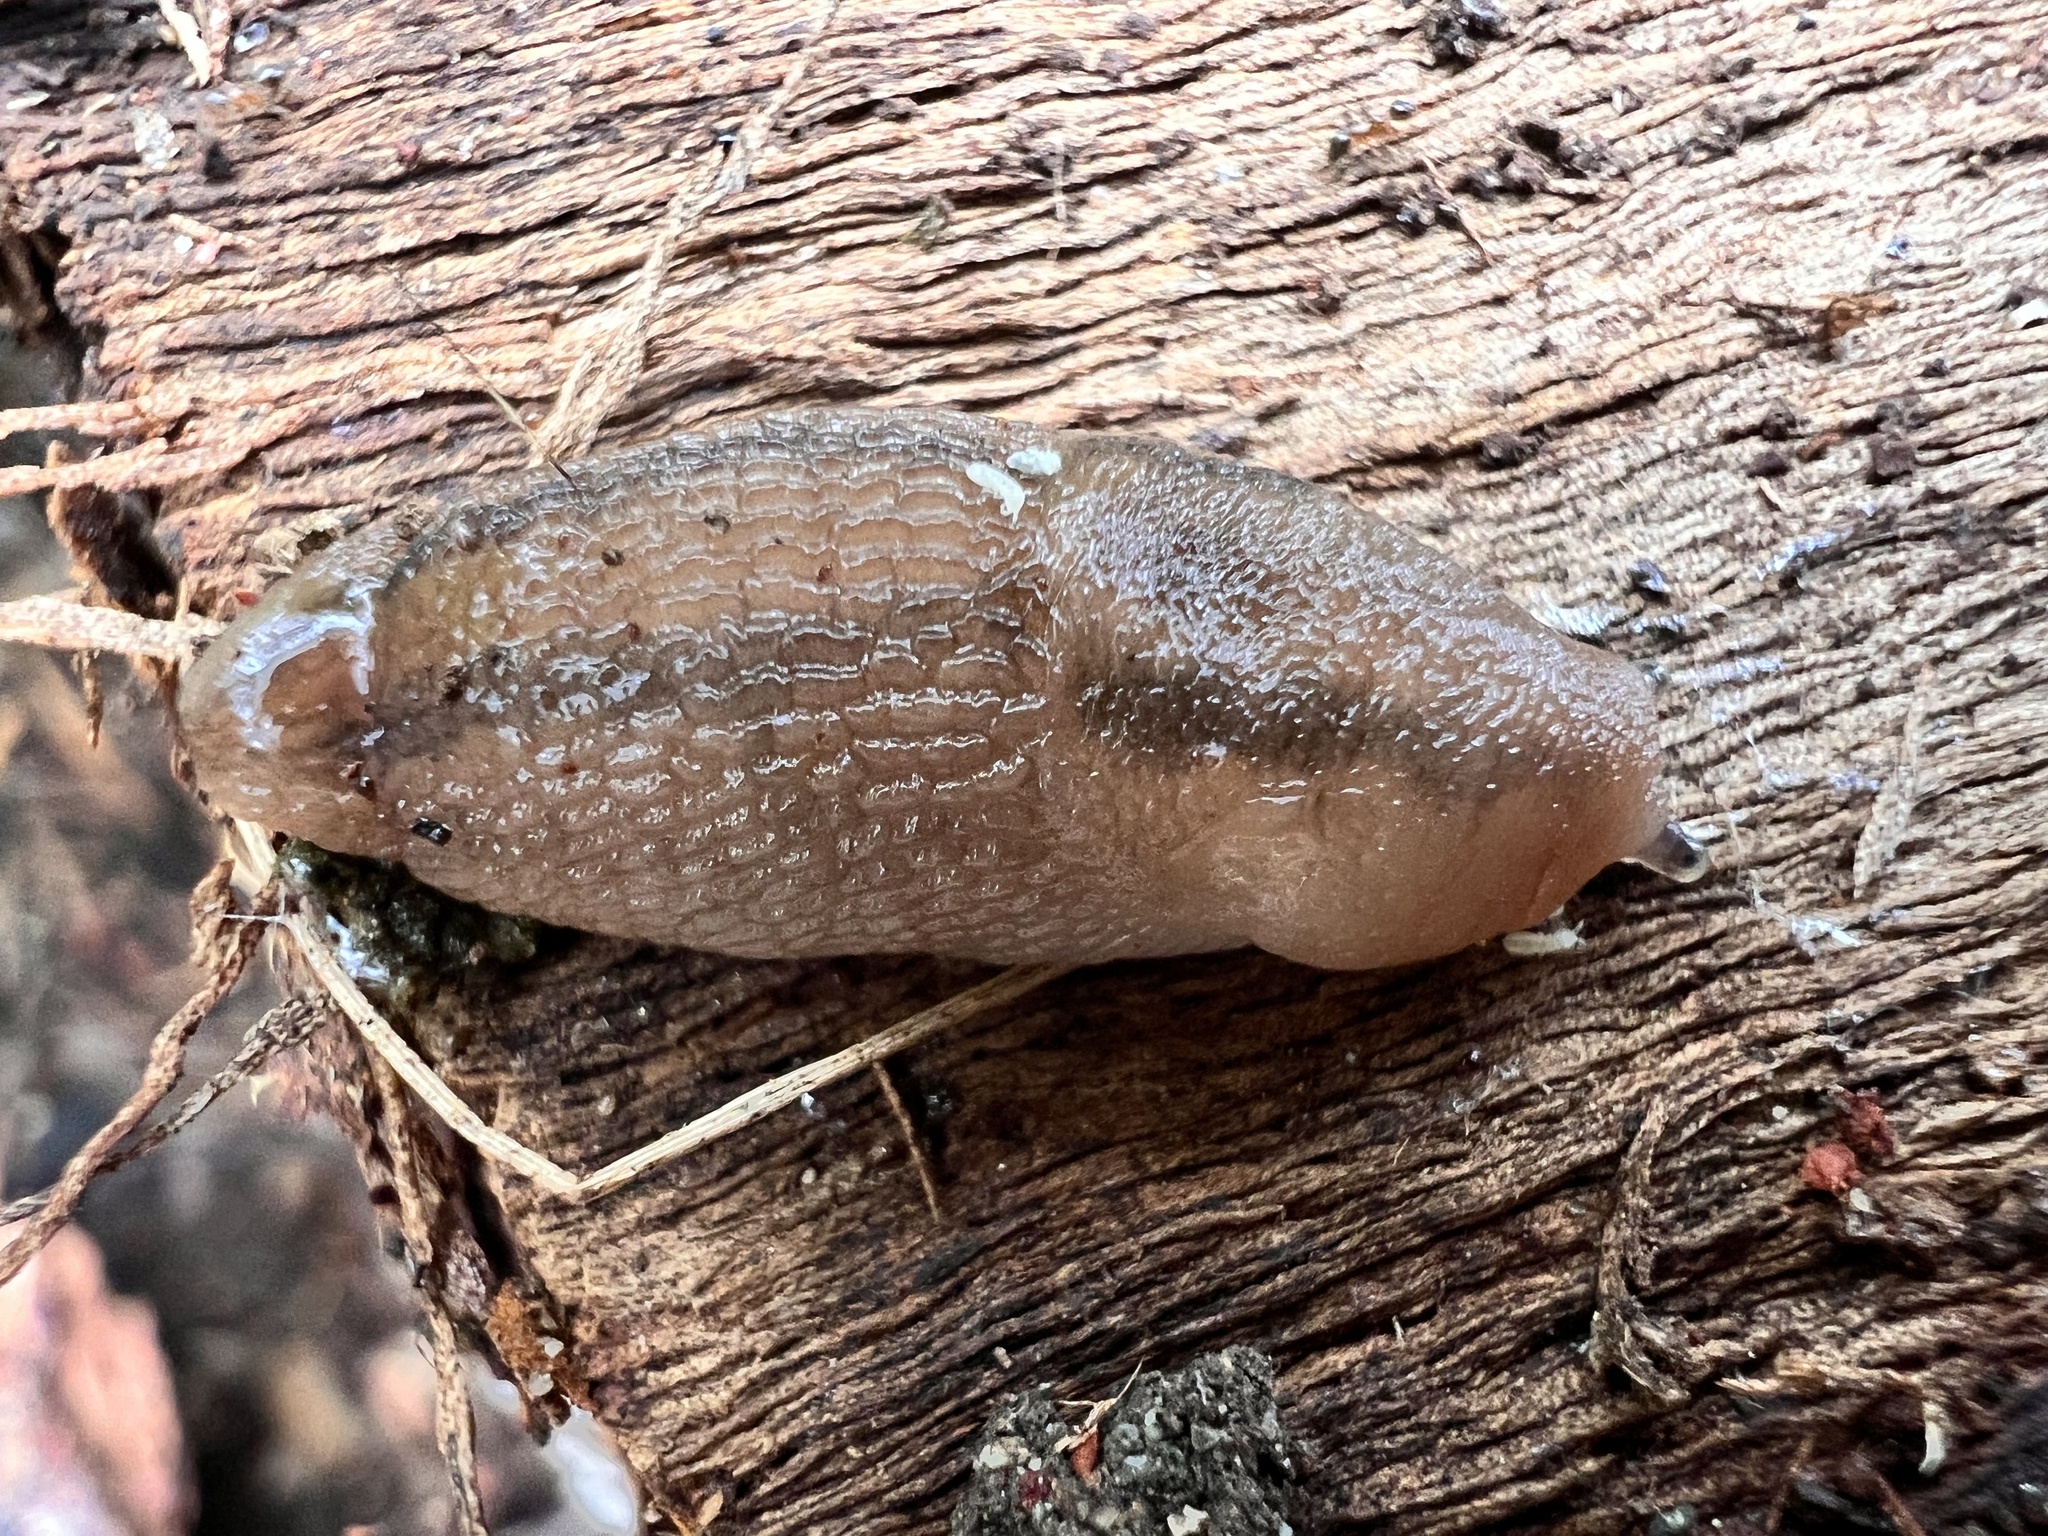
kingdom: Animalia
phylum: Mollusca
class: Gastropoda
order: Stylommatophora
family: Limacidae
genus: Ambigolimax
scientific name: Ambigolimax
